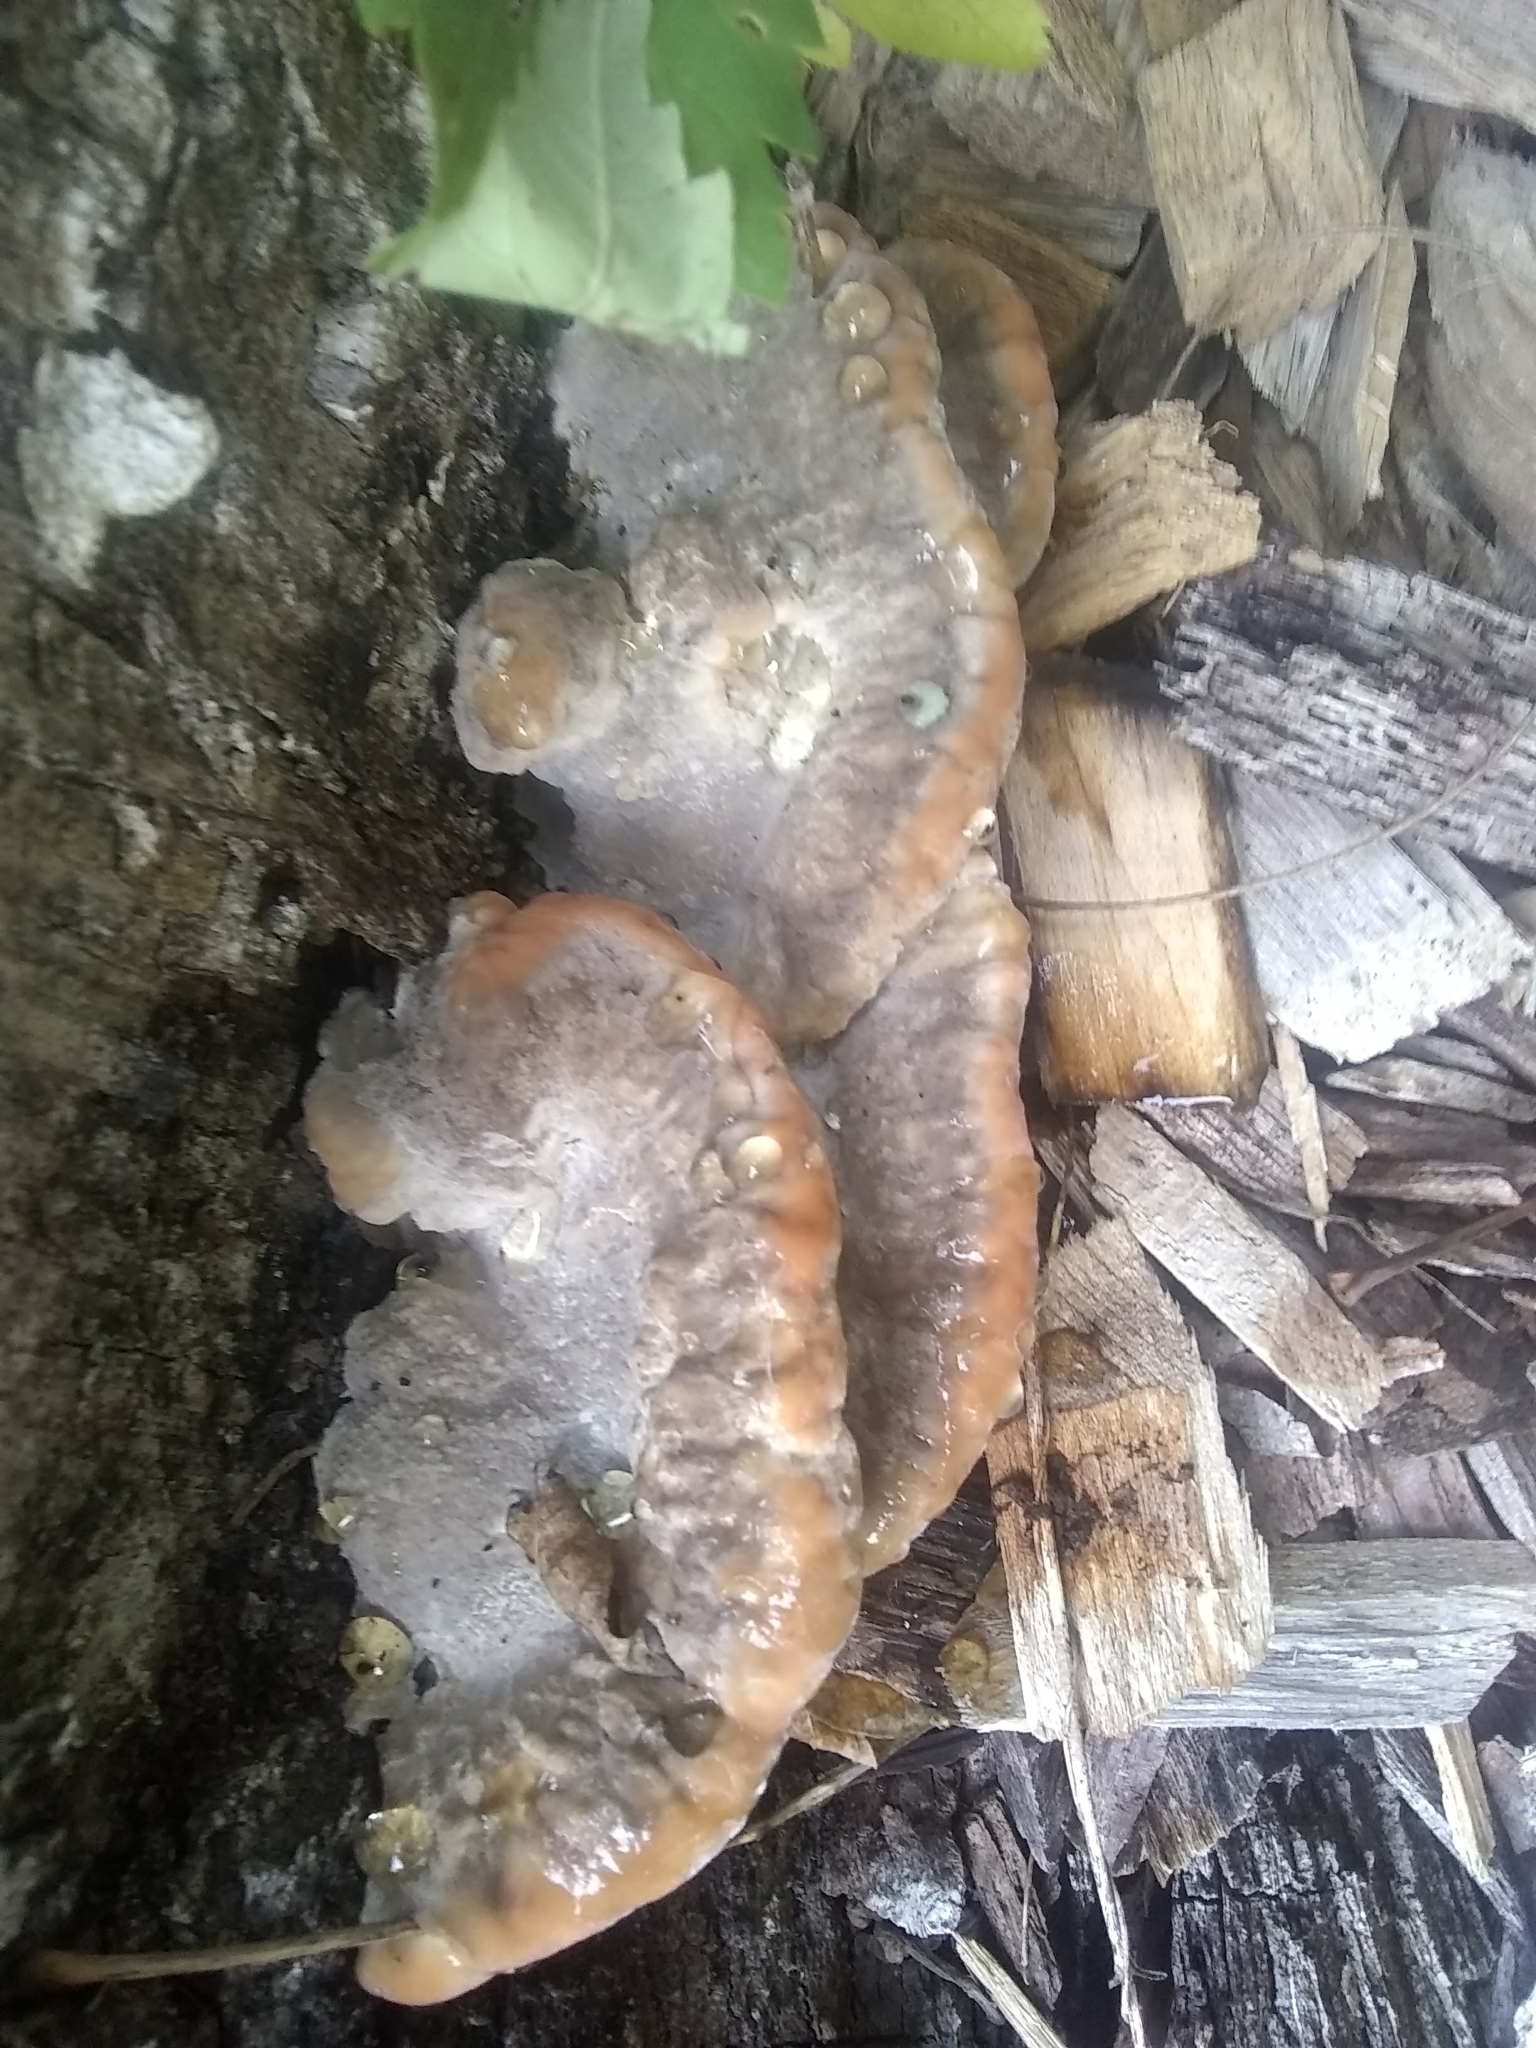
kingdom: Fungi
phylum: Basidiomycota
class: Agaricomycetes
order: Polyporales
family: Fomitopsidaceae
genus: Niveoporofomes
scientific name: Niveoporofomes spraguei
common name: Green cheese polypore
